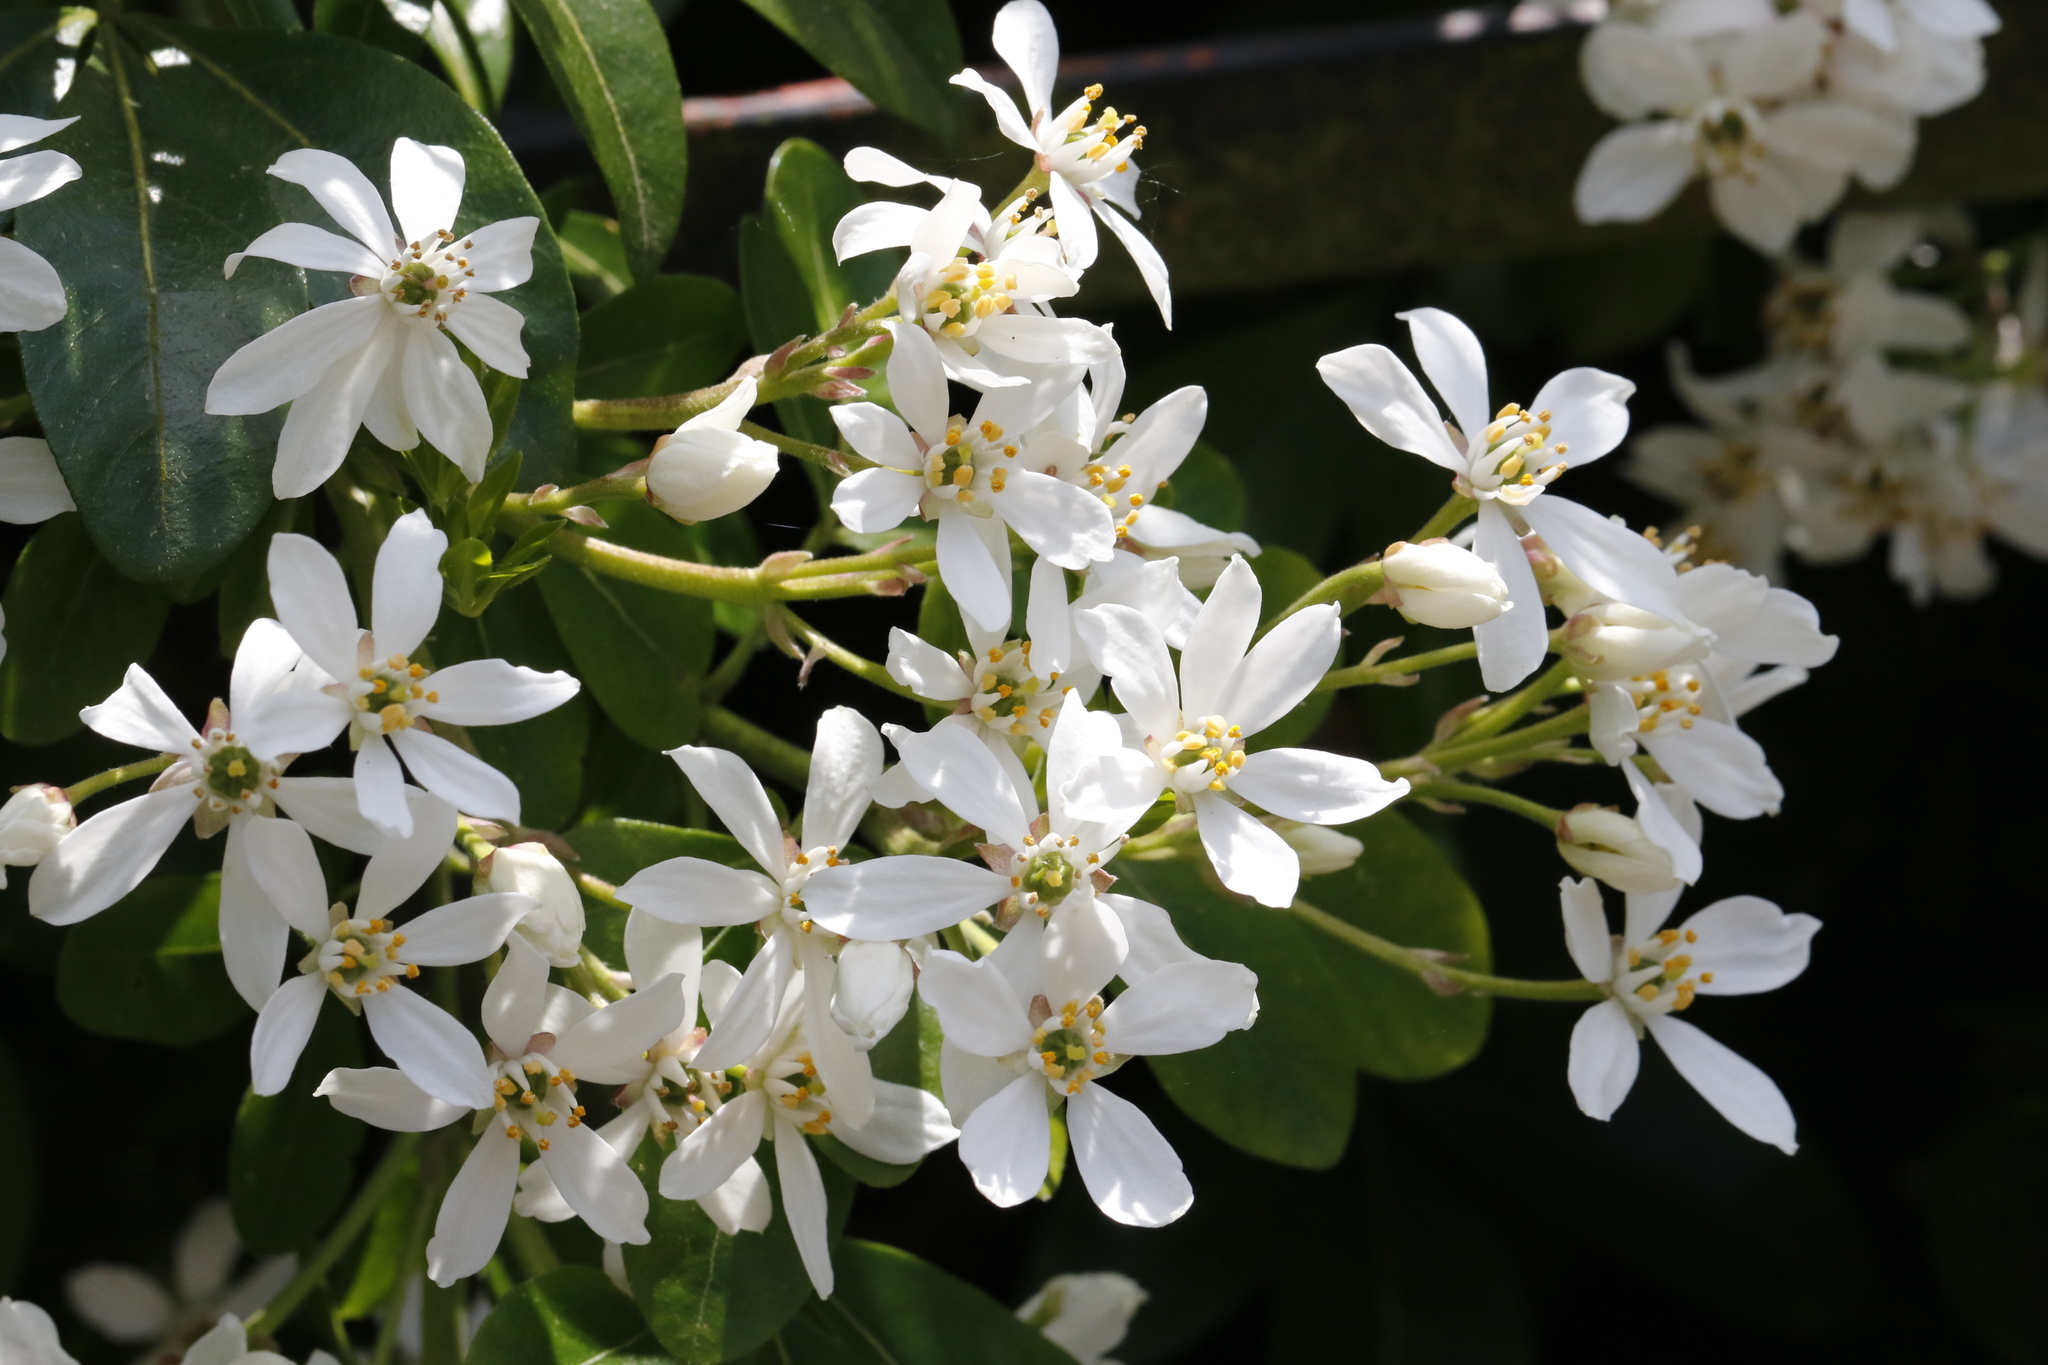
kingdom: Plantae
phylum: Tracheophyta
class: Magnoliopsida
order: Sapindales
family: Rutaceae
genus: Choisya
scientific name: Choisya ternata
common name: Mexican orange
